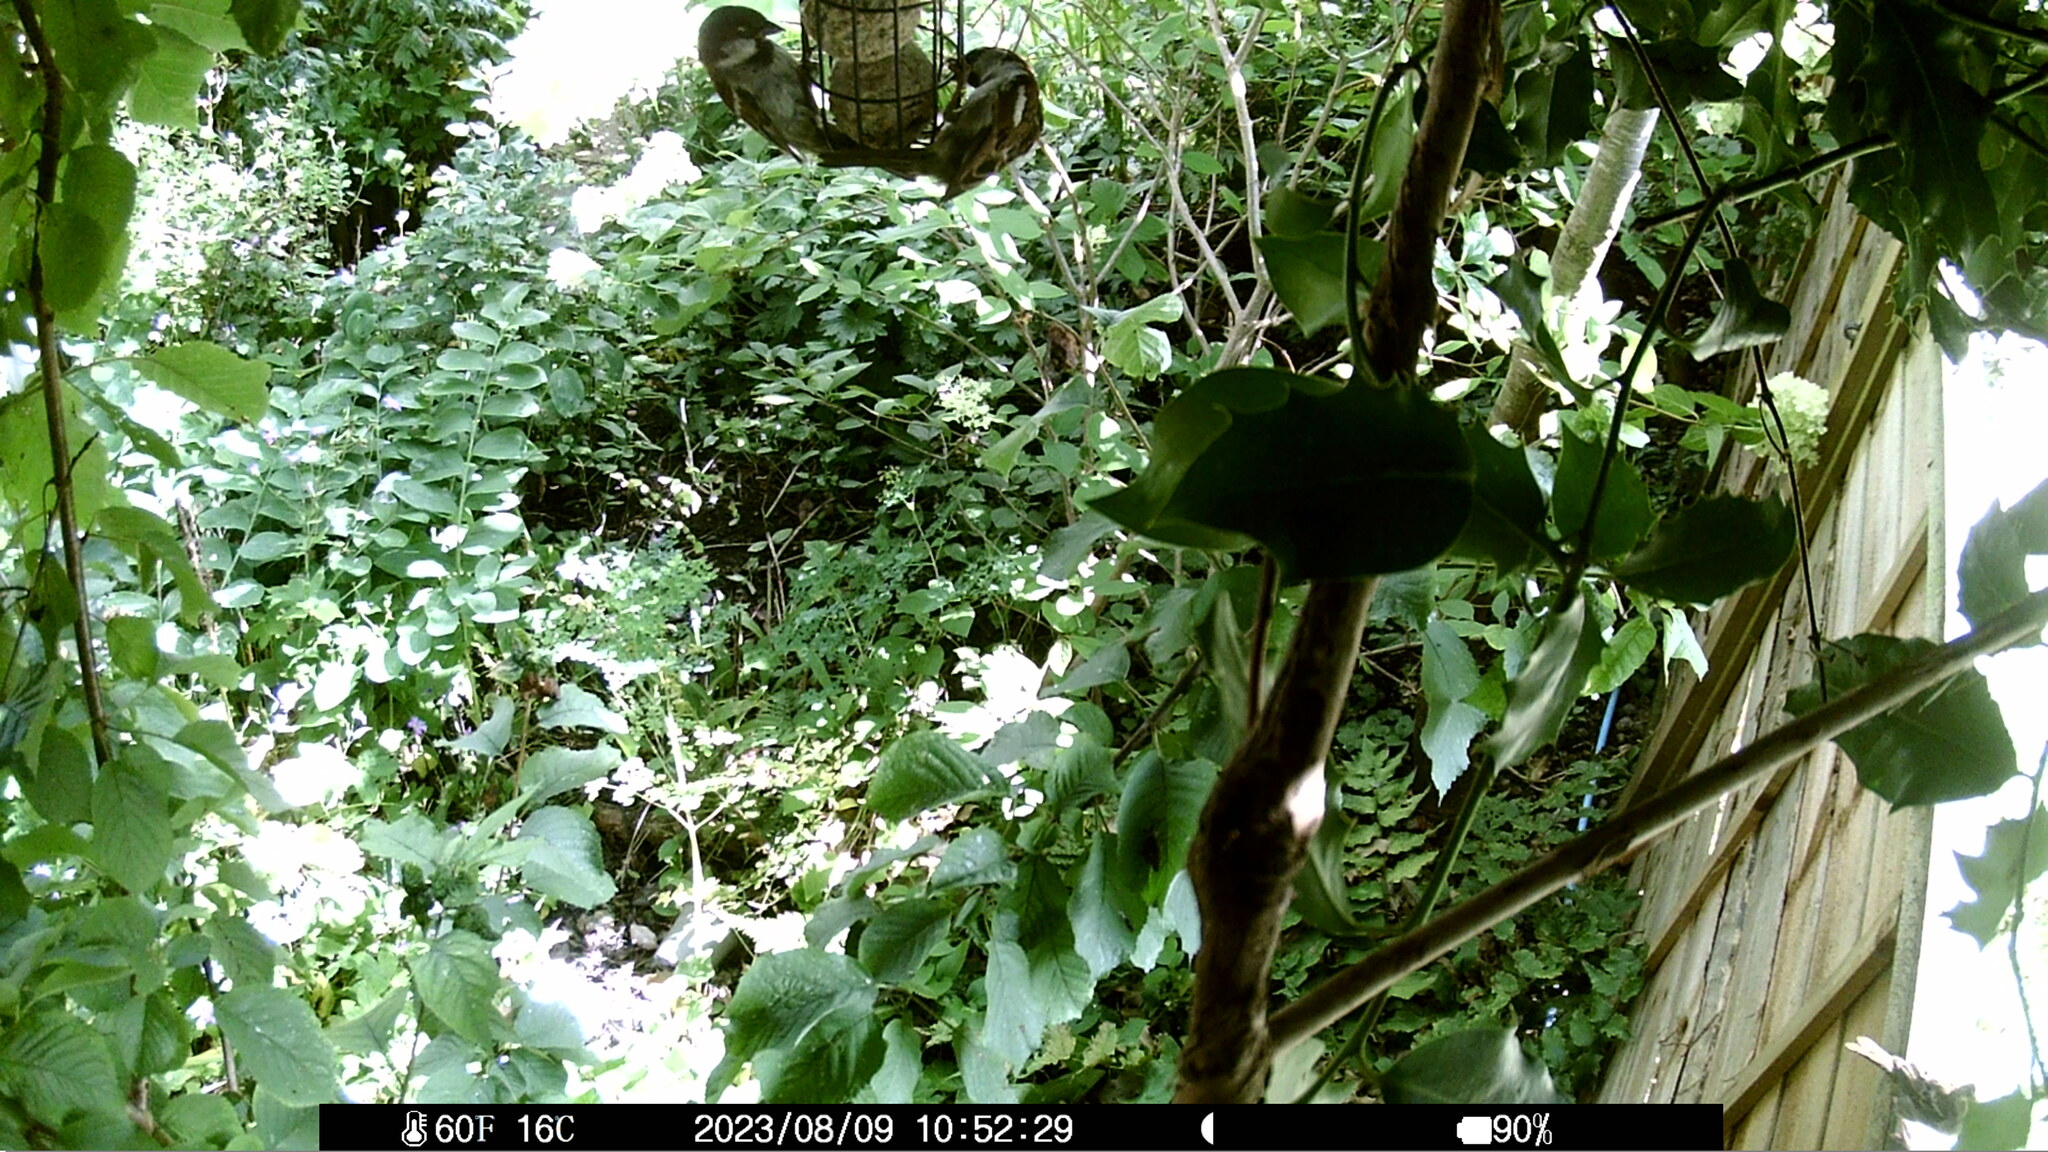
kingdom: Animalia
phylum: Chordata
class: Aves
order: Passeriformes
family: Passeridae
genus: Passer
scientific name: Passer domesticus
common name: House sparrow
